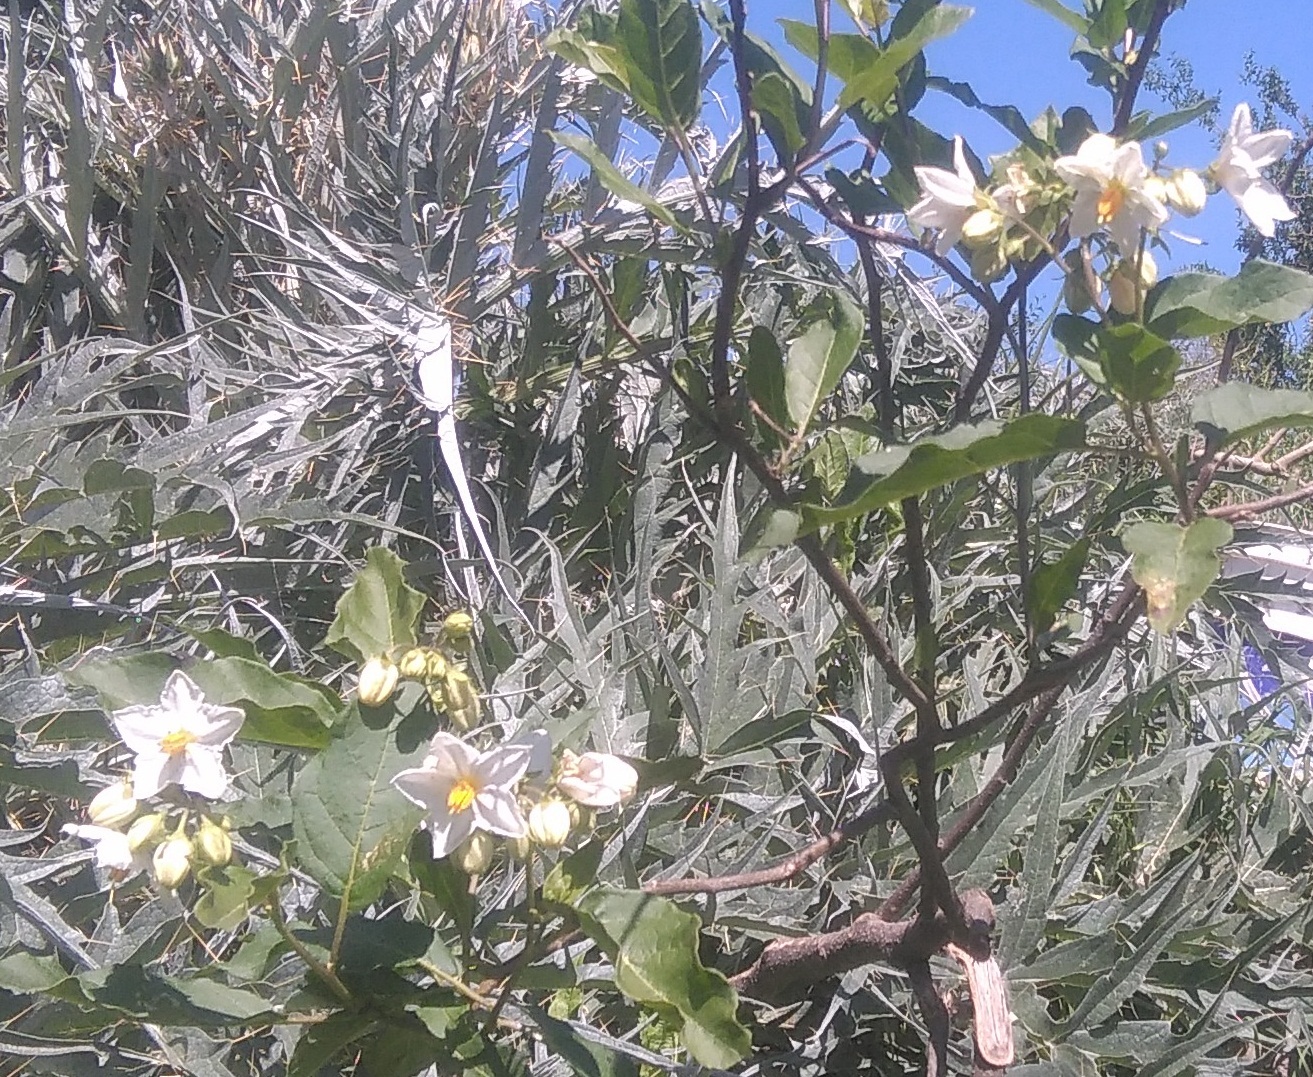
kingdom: Plantae
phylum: Tracheophyta
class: Magnoliopsida
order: Solanales
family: Solanaceae
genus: Solanum
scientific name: Solanum bonariense
